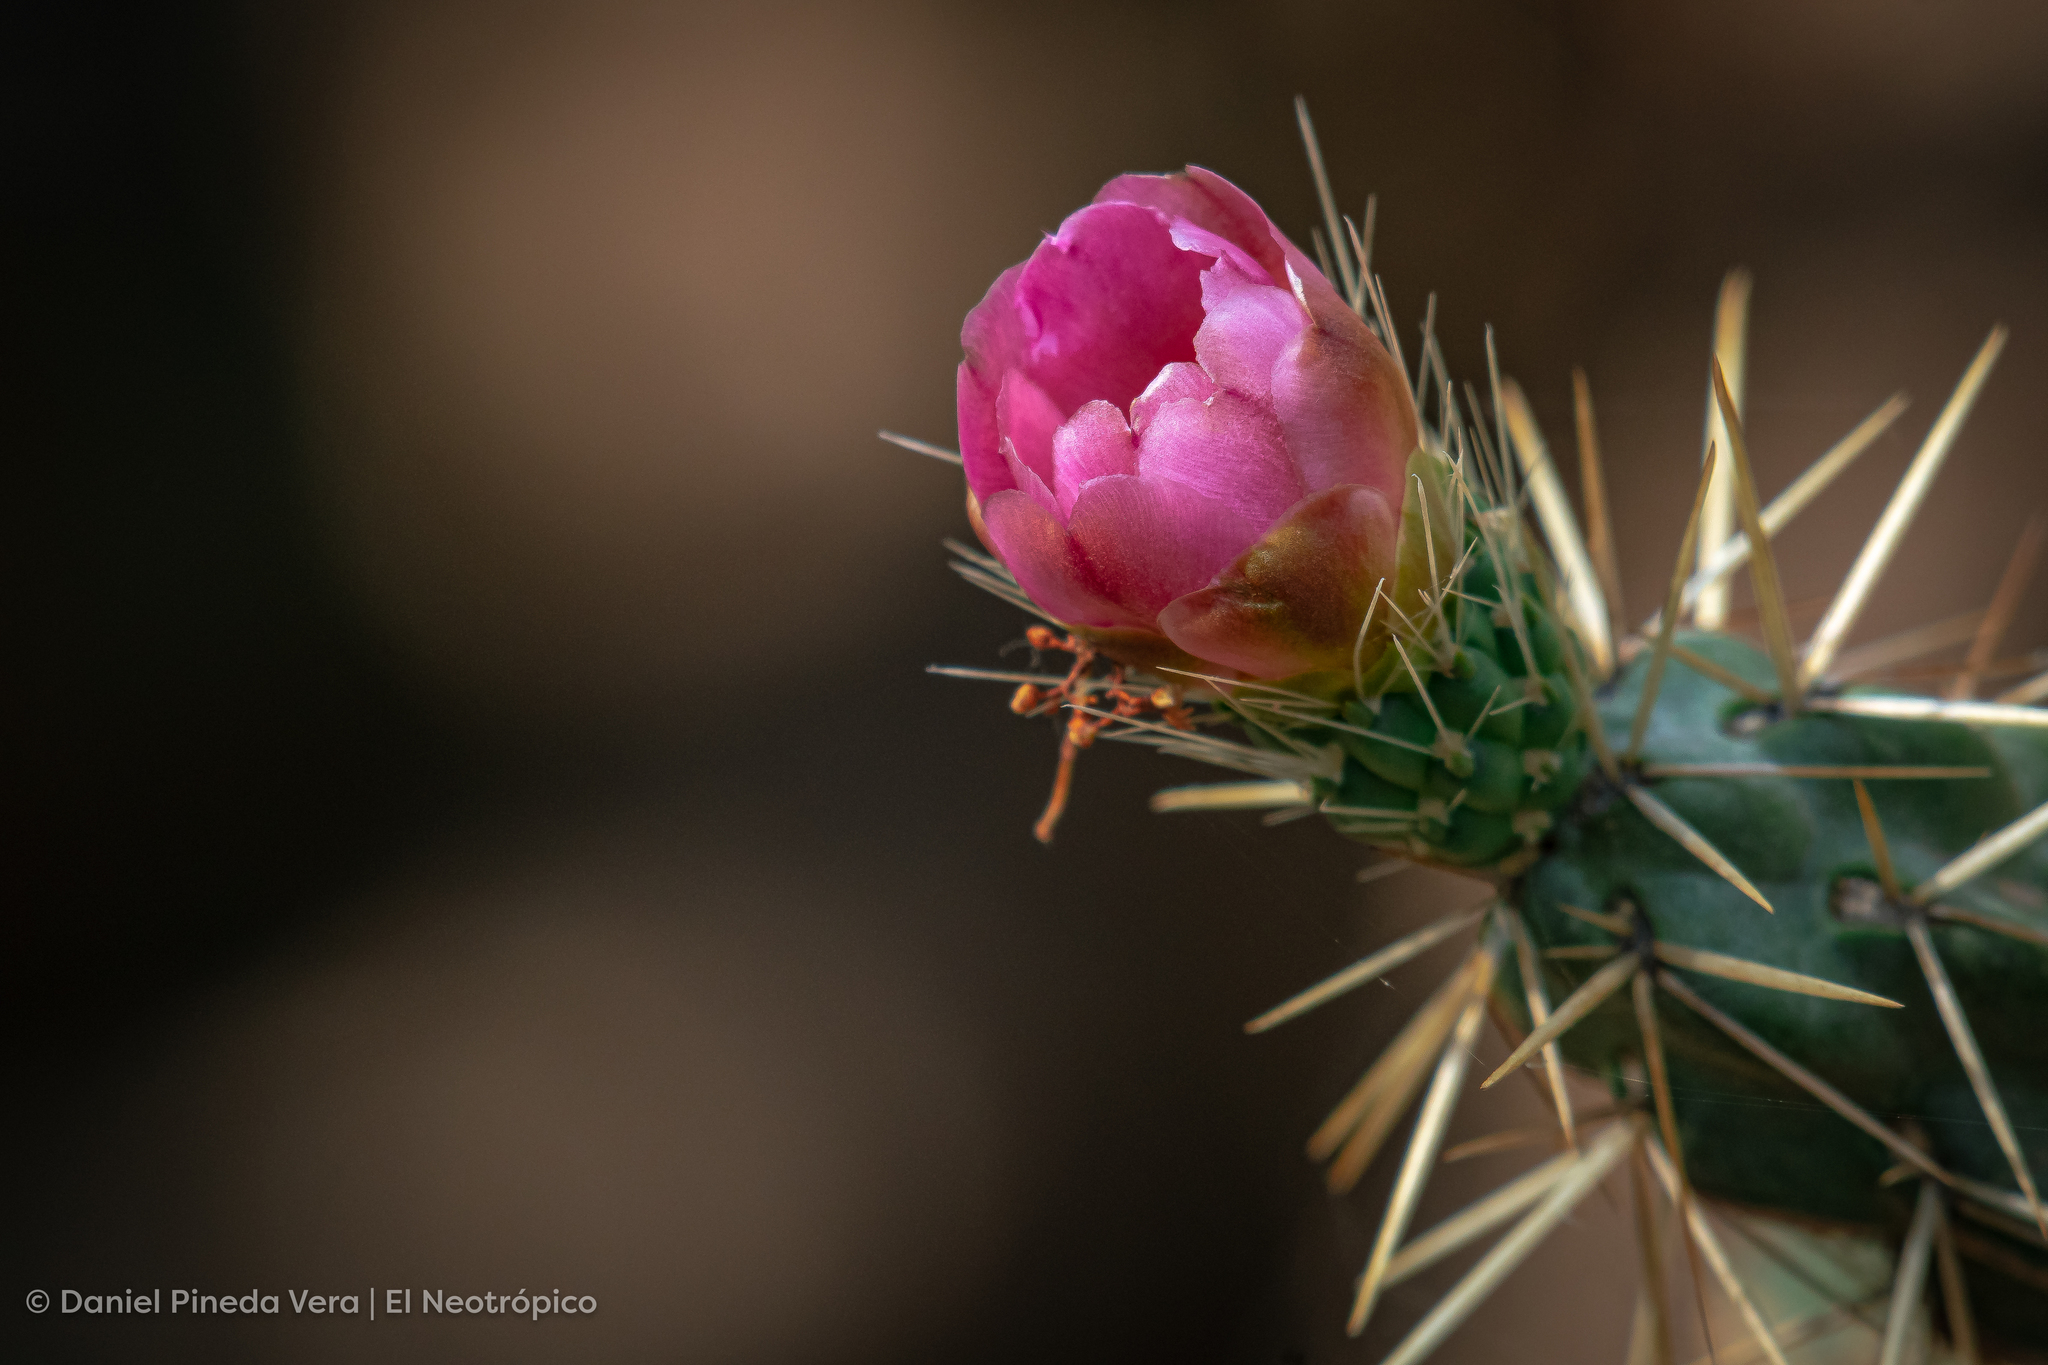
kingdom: Plantae
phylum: Tracheophyta
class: Magnoliopsida
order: Caryophyllales
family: Cactaceae
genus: Cylindropuntia
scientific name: Cylindropuntia imbricata
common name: Candelabrum cactus
